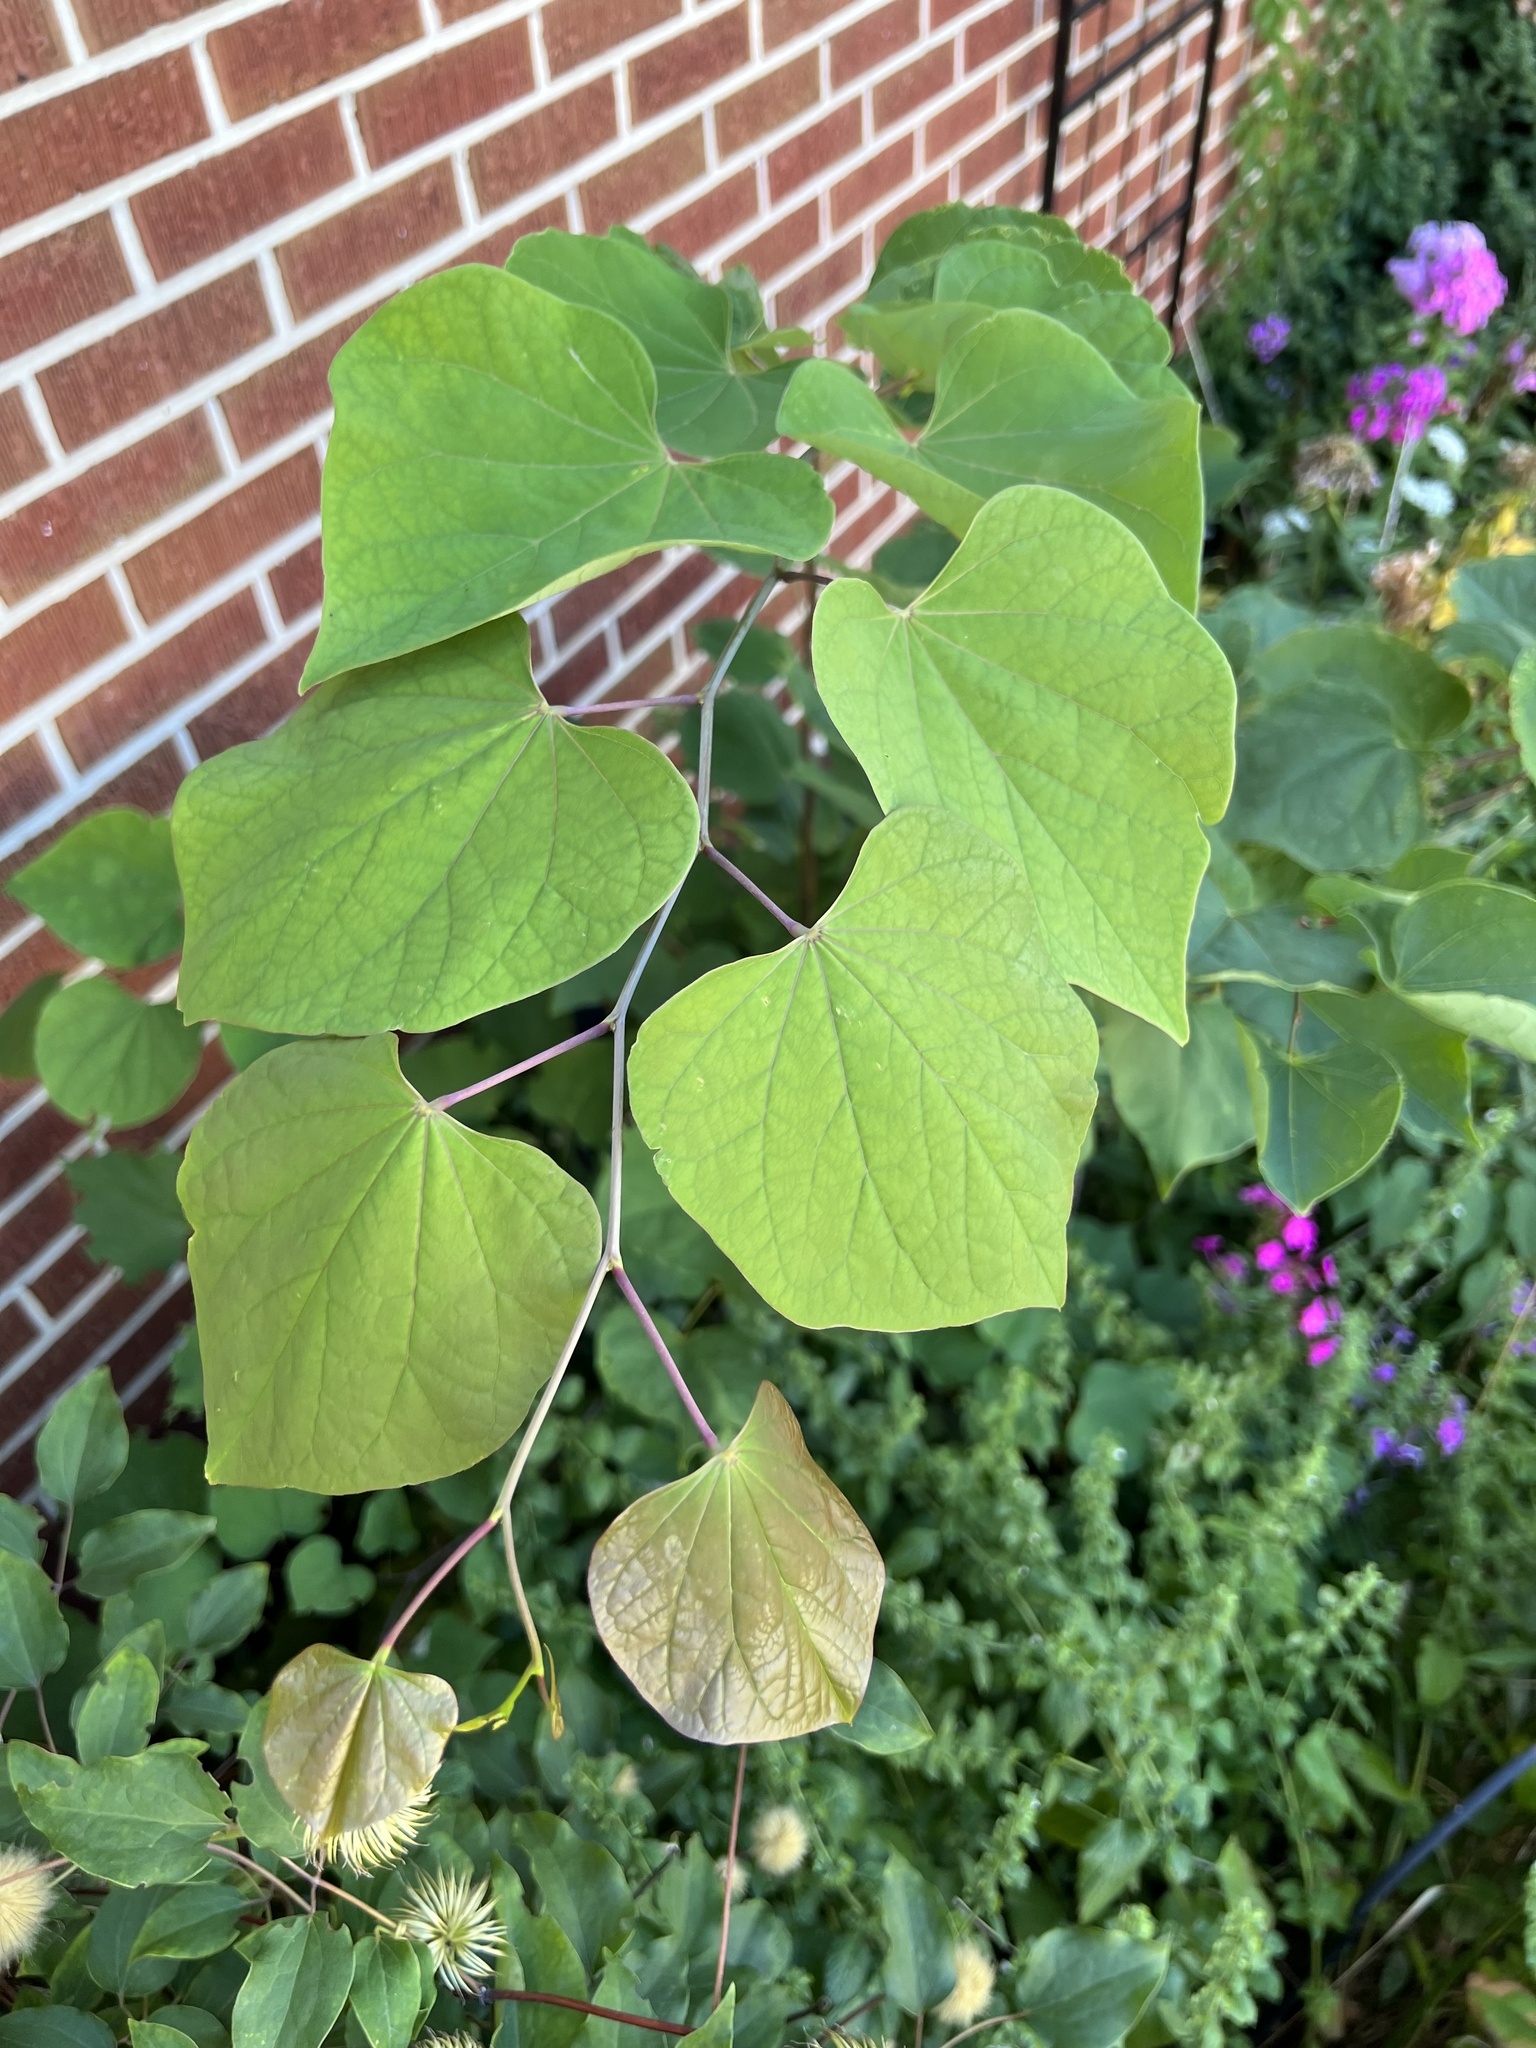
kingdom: Plantae
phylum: Tracheophyta
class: Magnoliopsida
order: Fabales
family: Fabaceae
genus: Cercis
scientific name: Cercis canadensis
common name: Eastern redbud
